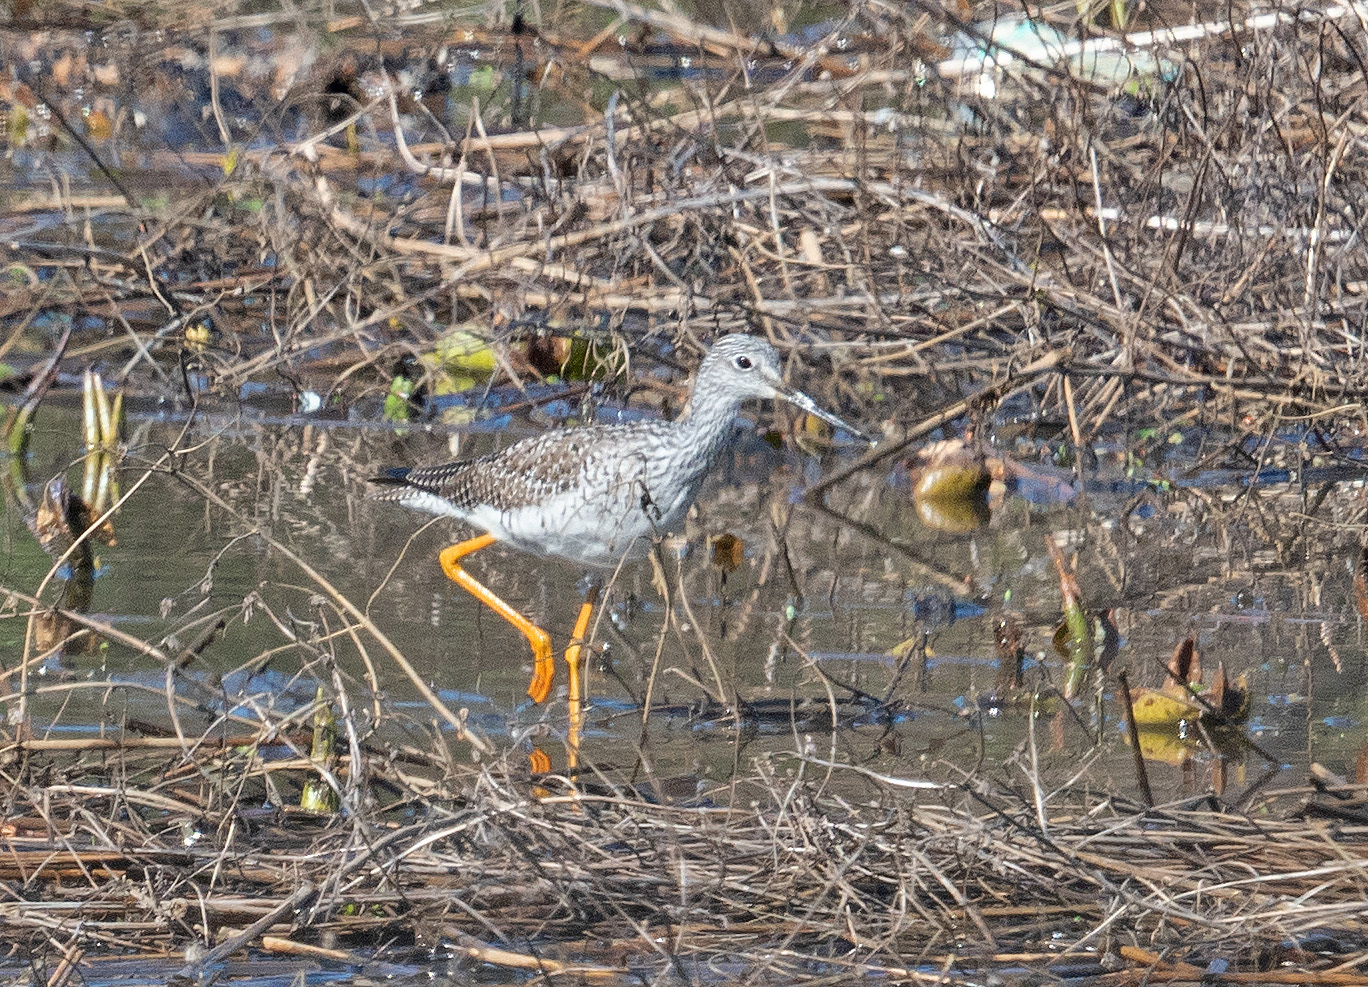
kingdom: Animalia
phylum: Chordata
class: Aves
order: Charadriiformes
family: Scolopacidae
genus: Tringa
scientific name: Tringa melanoleuca
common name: Greater yellowlegs
